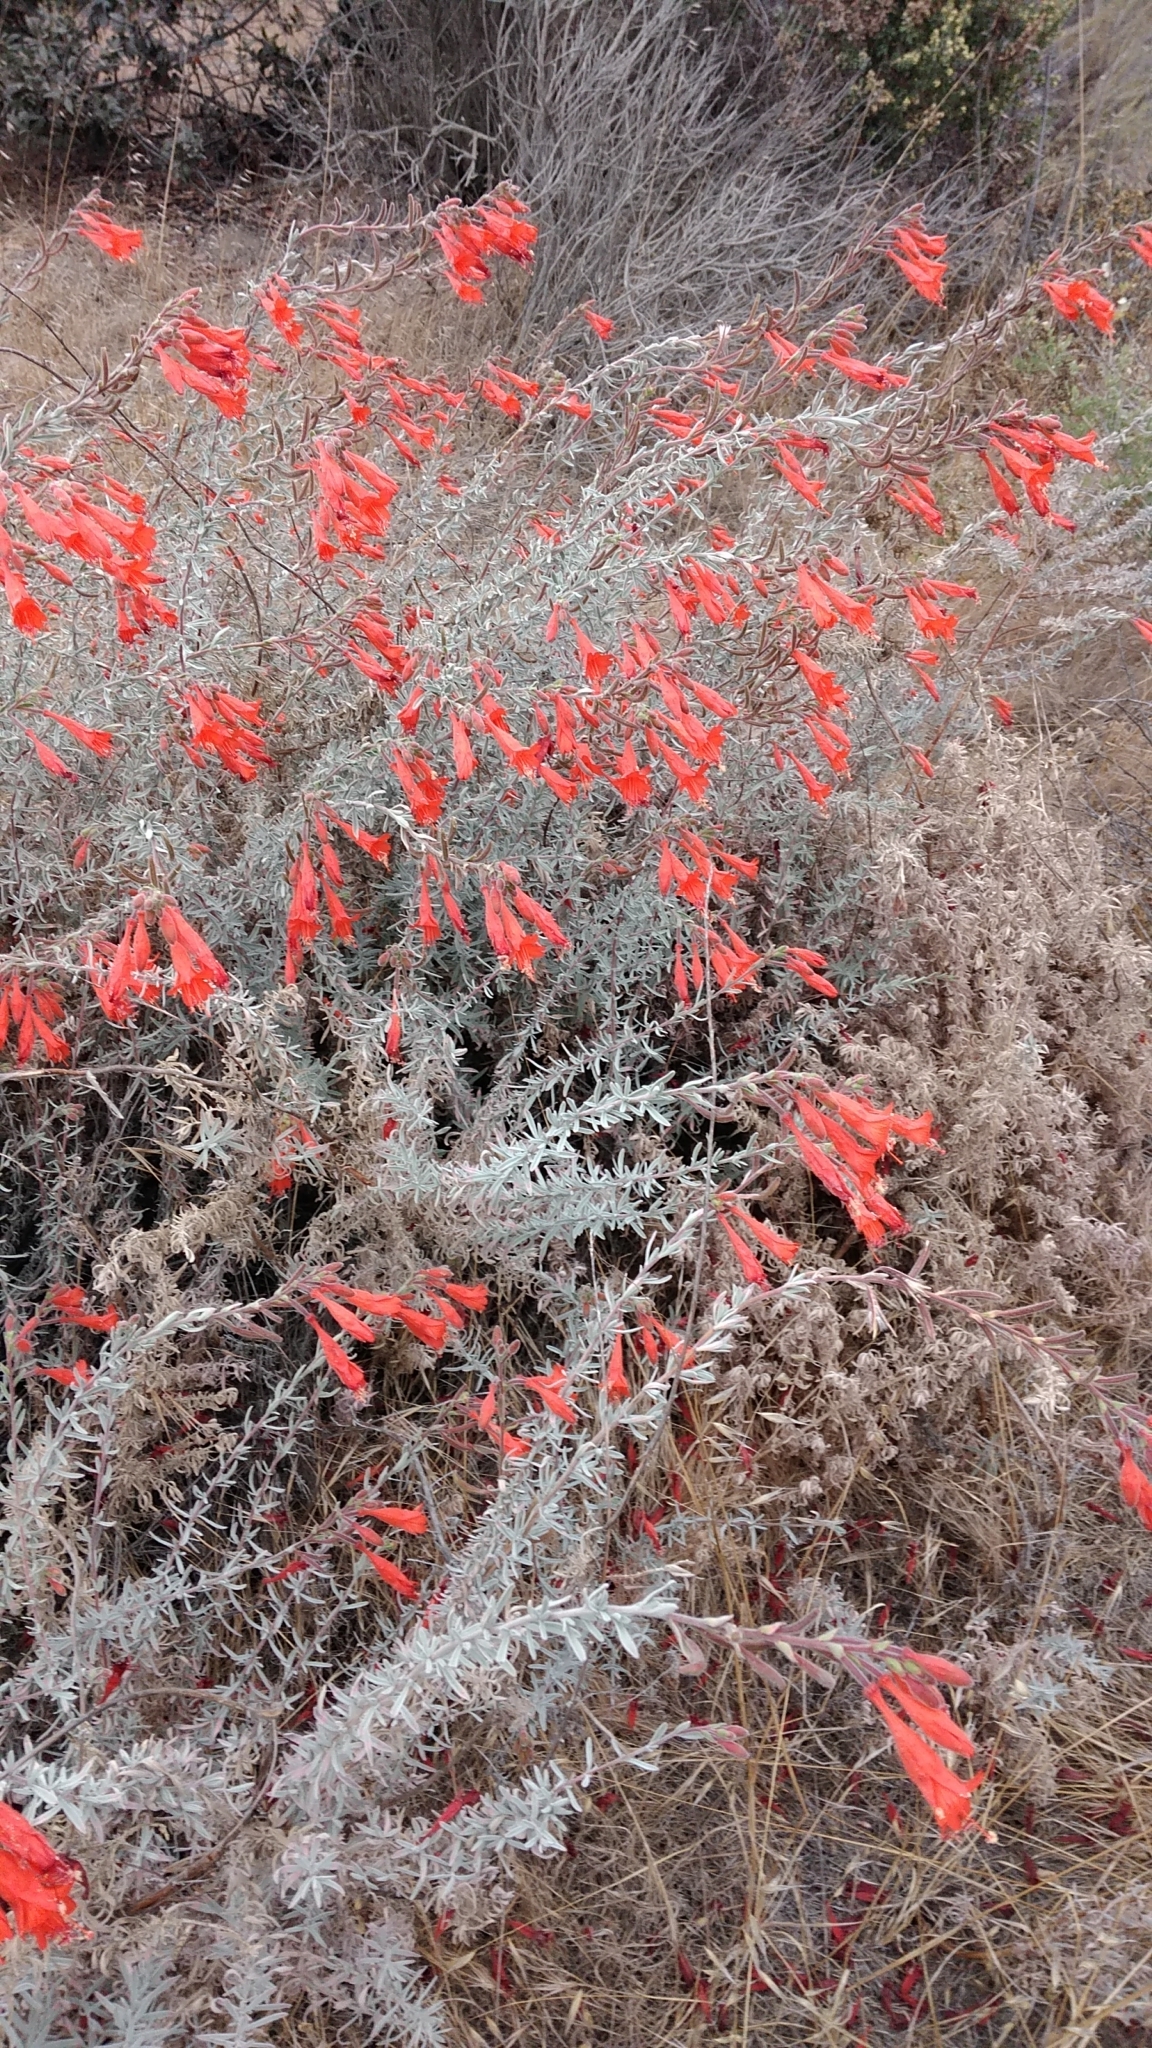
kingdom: Plantae
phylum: Tracheophyta
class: Magnoliopsida
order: Myrtales
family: Onagraceae
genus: Epilobium
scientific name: Epilobium canum
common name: California-fuchsia
